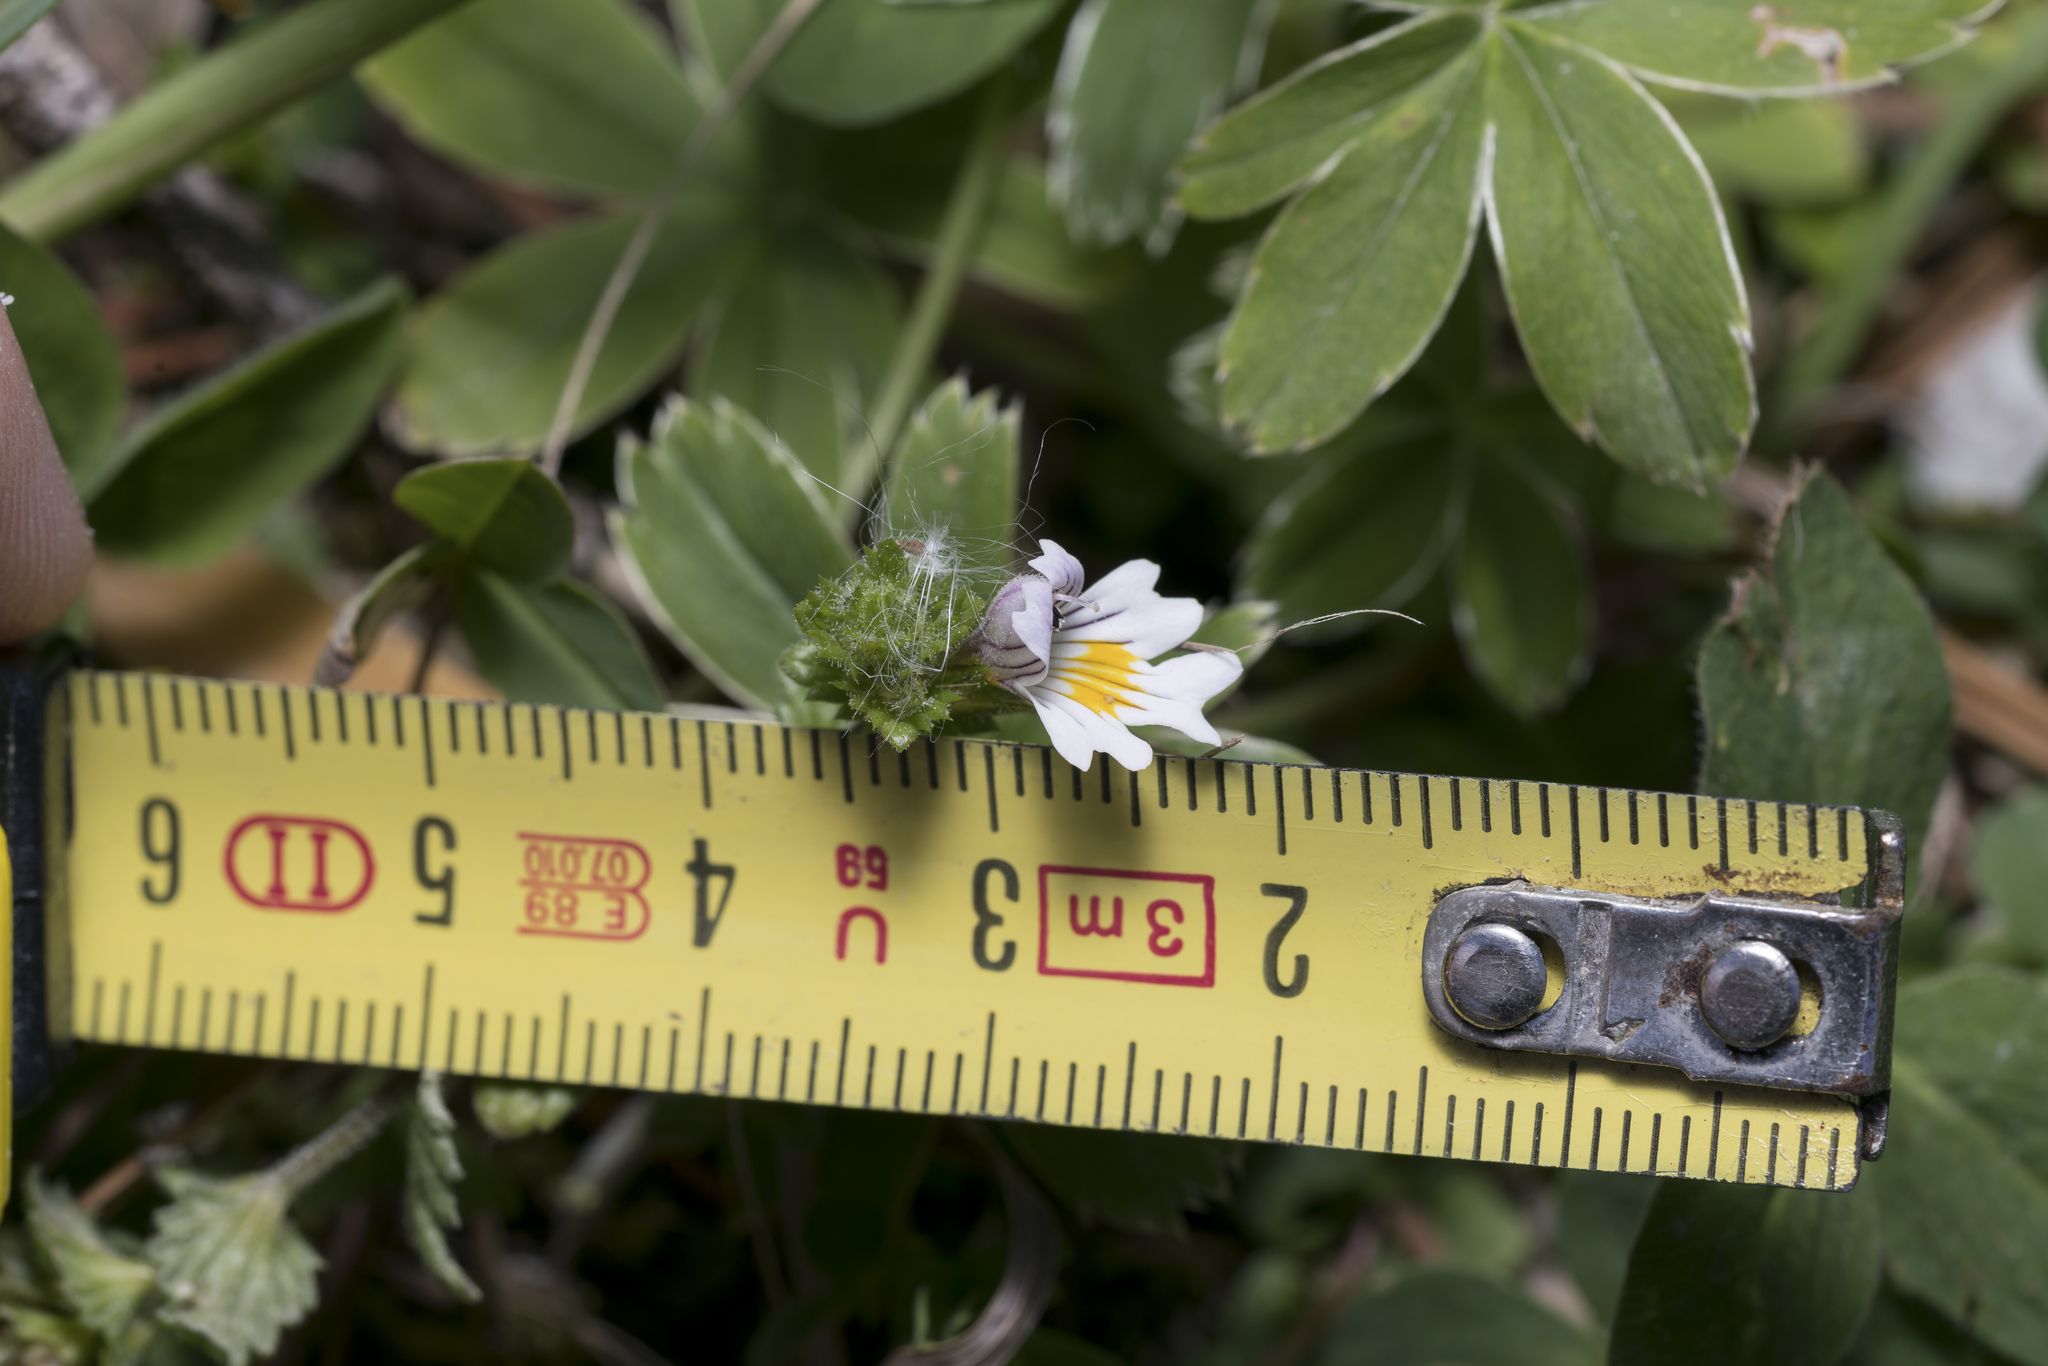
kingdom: Plantae
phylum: Tracheophyta
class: Magnoliopsida
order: Lamiales
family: Orobanchaceae
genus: Euphrasia
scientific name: Euphrasia officinalis
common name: Eyebright
